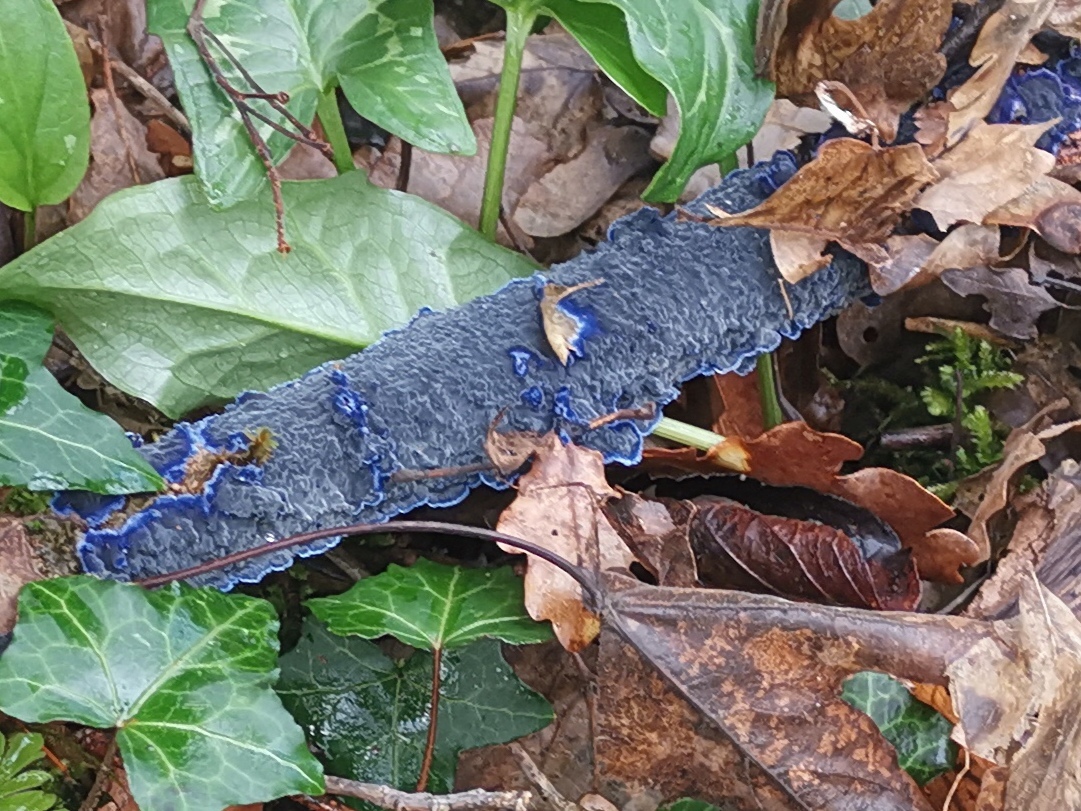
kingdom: Fungi
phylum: Basidiomycota
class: Agaricomycetes
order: Polyporales
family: Phanerochaetaceae
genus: Terana
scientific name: Terana coerulea
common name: Cobalt crust
